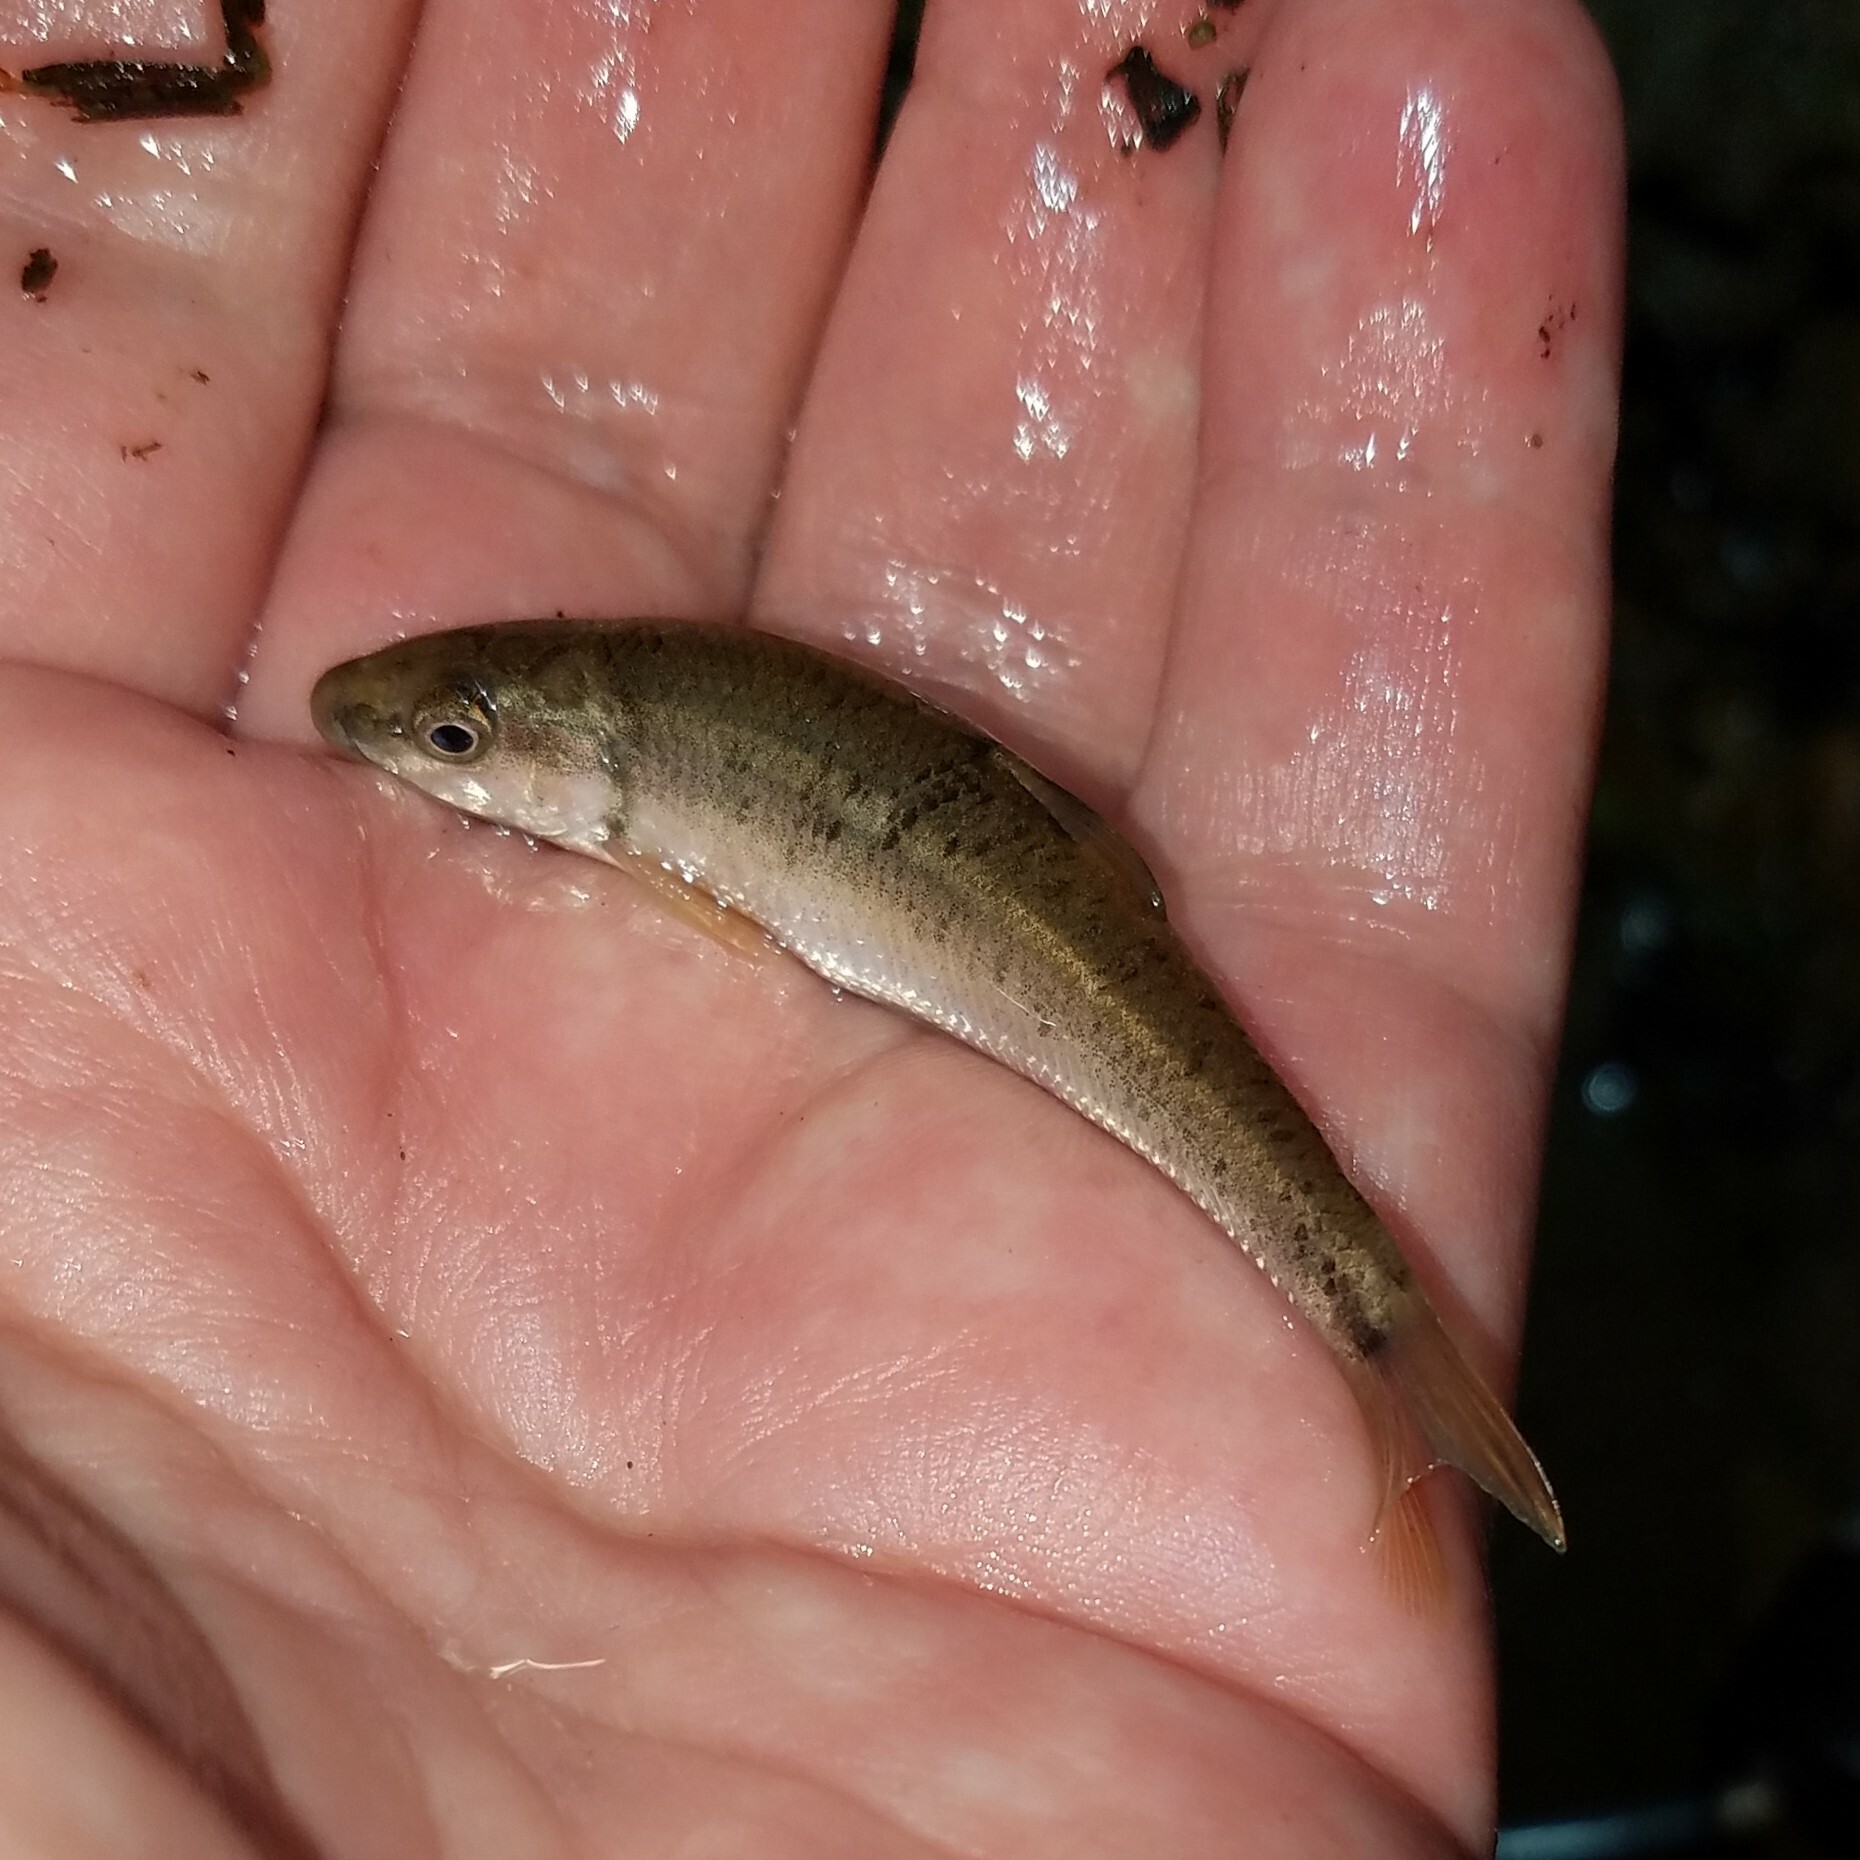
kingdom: Animalia
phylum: Chordata
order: Cypriniformes
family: Cyprinidae
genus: Campostoma
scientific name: Campostoma oligolepis
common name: Largescale stoneroller
